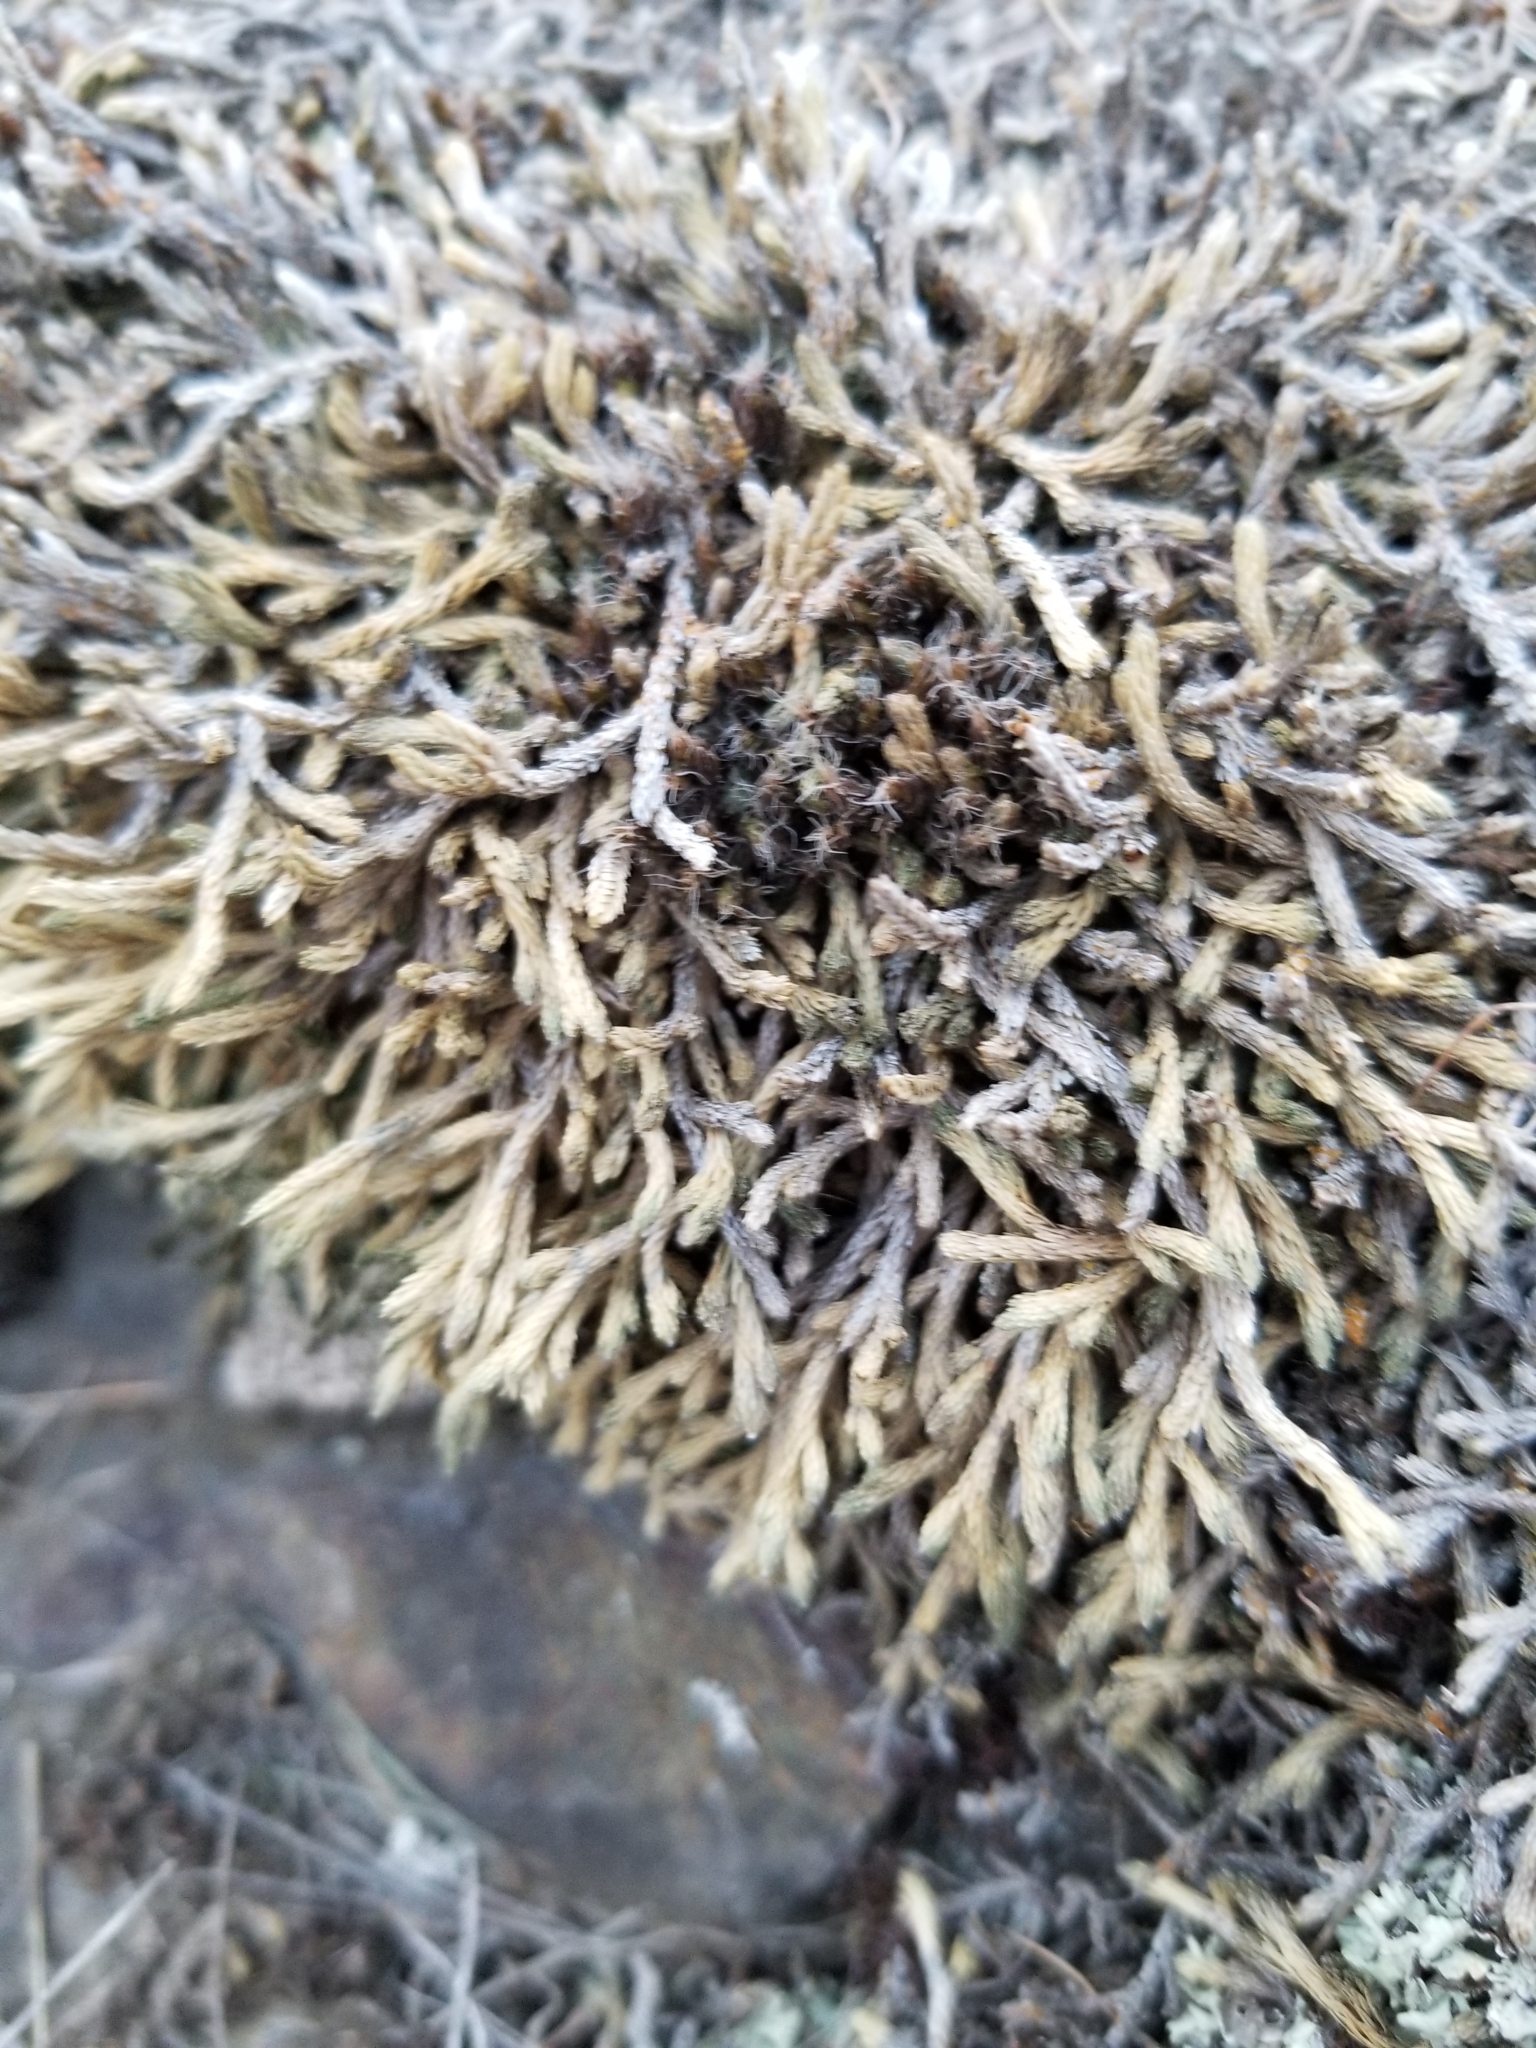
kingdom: Plantae
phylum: Tracheophyta
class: Lycopodiopsida
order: Selaginellales
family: Selaginellaceae
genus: Selaginella
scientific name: Selaginella wallacei
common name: Wallace's selaginella
